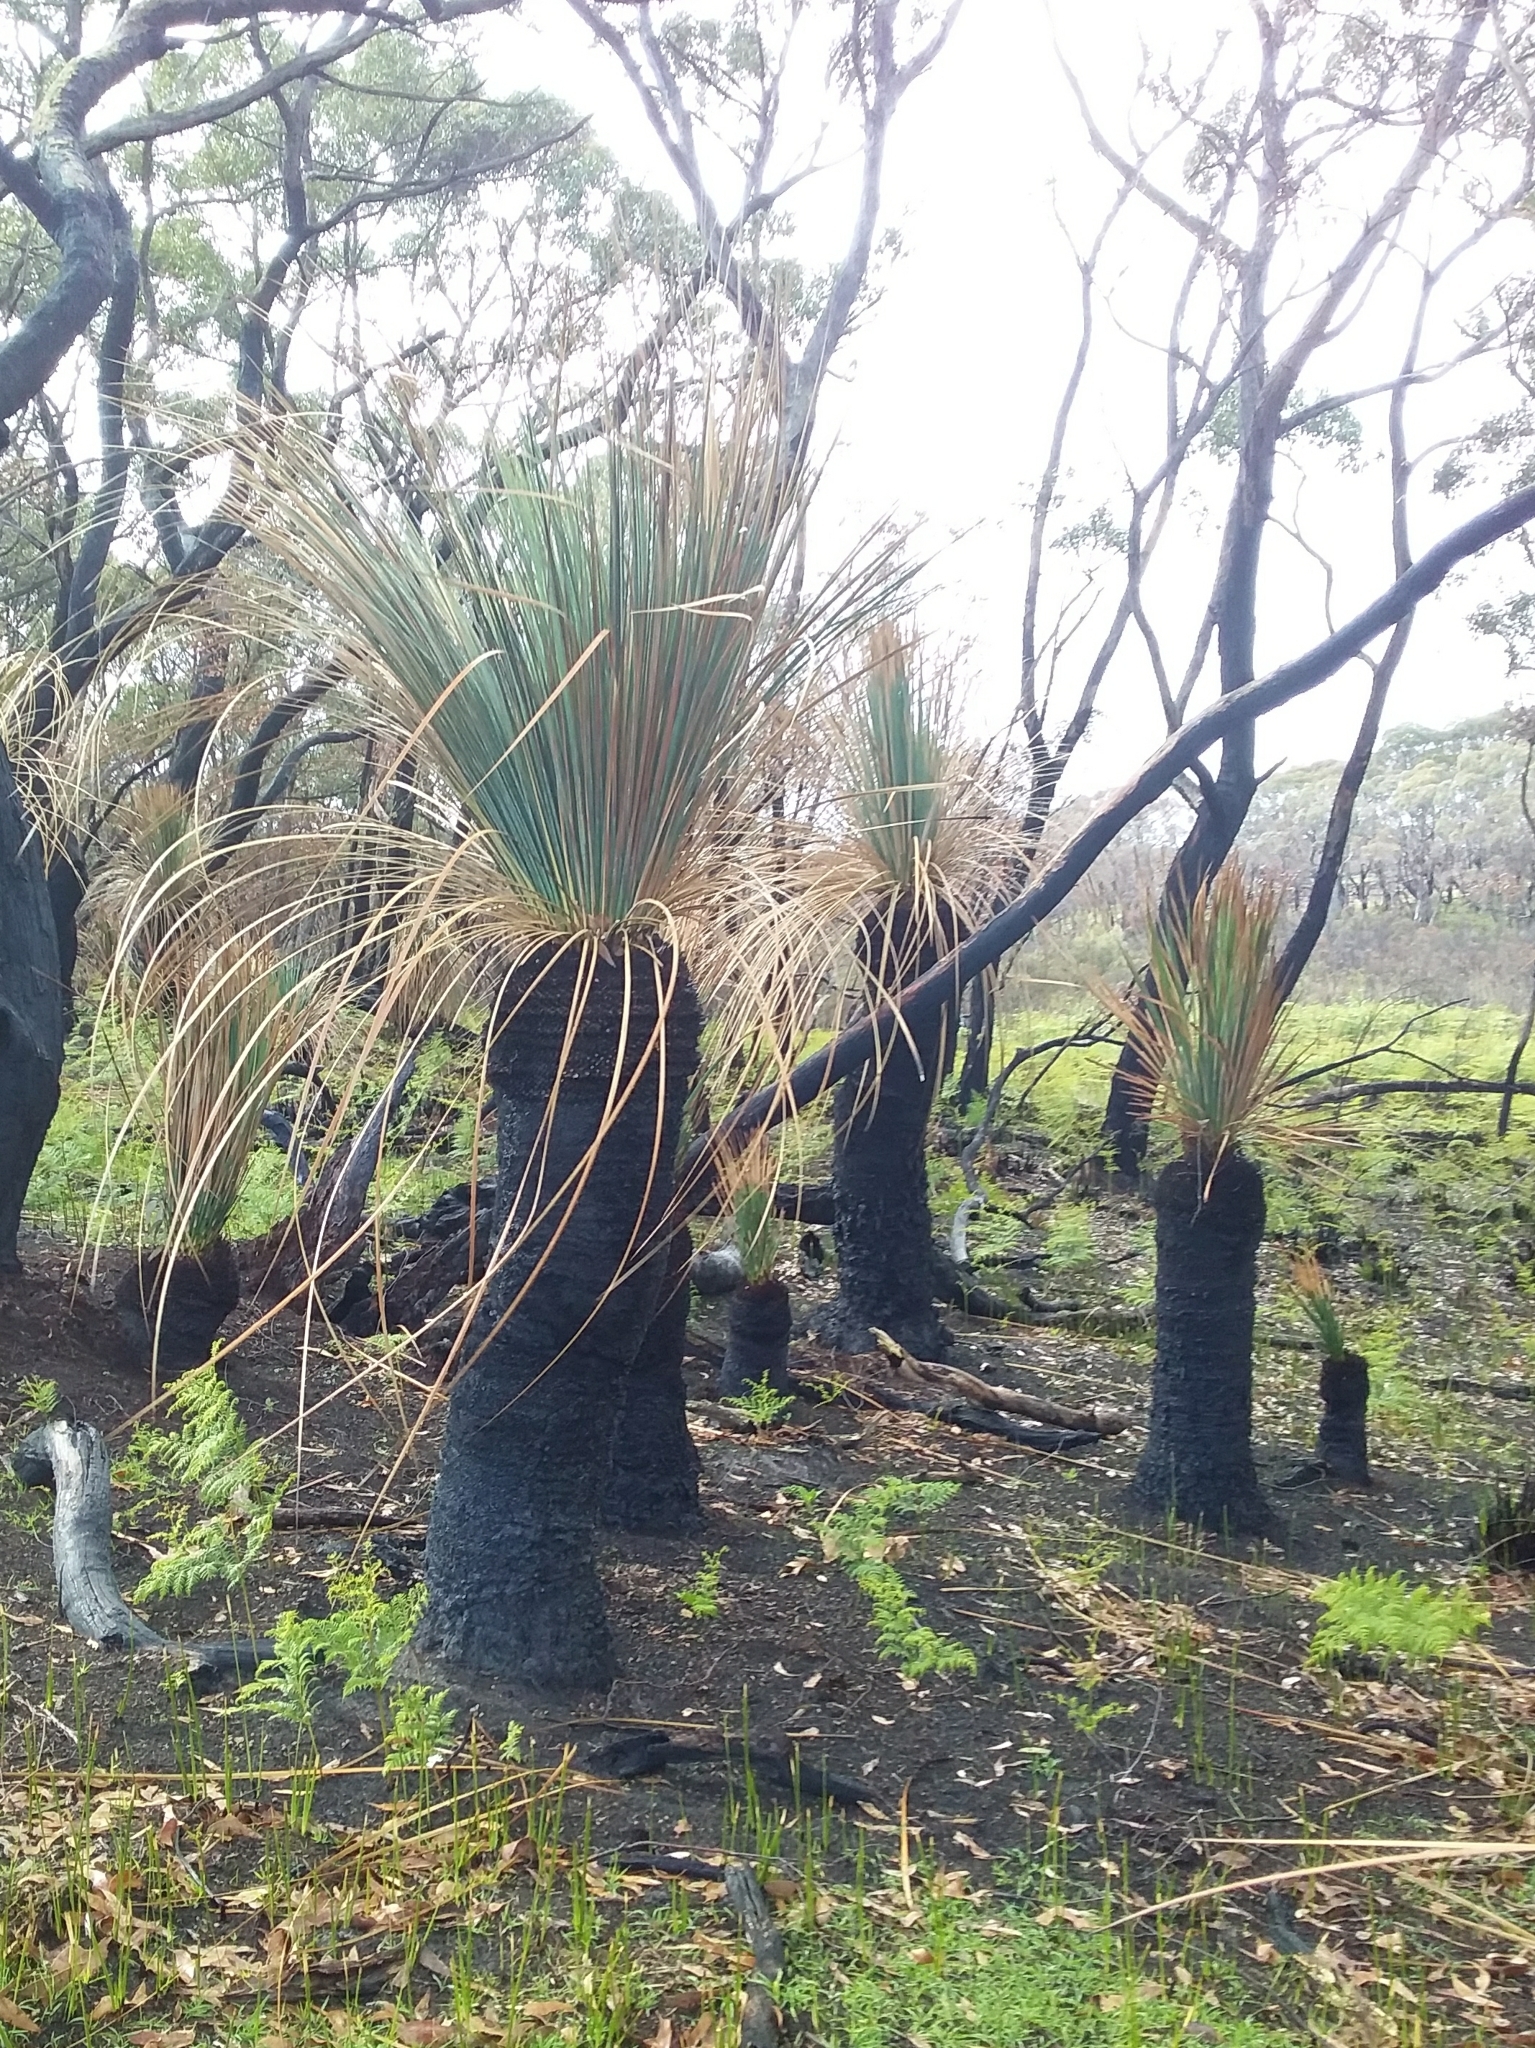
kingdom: Plantae
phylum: Tracheophyta
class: Liliopsida
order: Asparagales
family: Asphodelaceae
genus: Xanthorrhoea
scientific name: Xanthorrhoea semiplana
